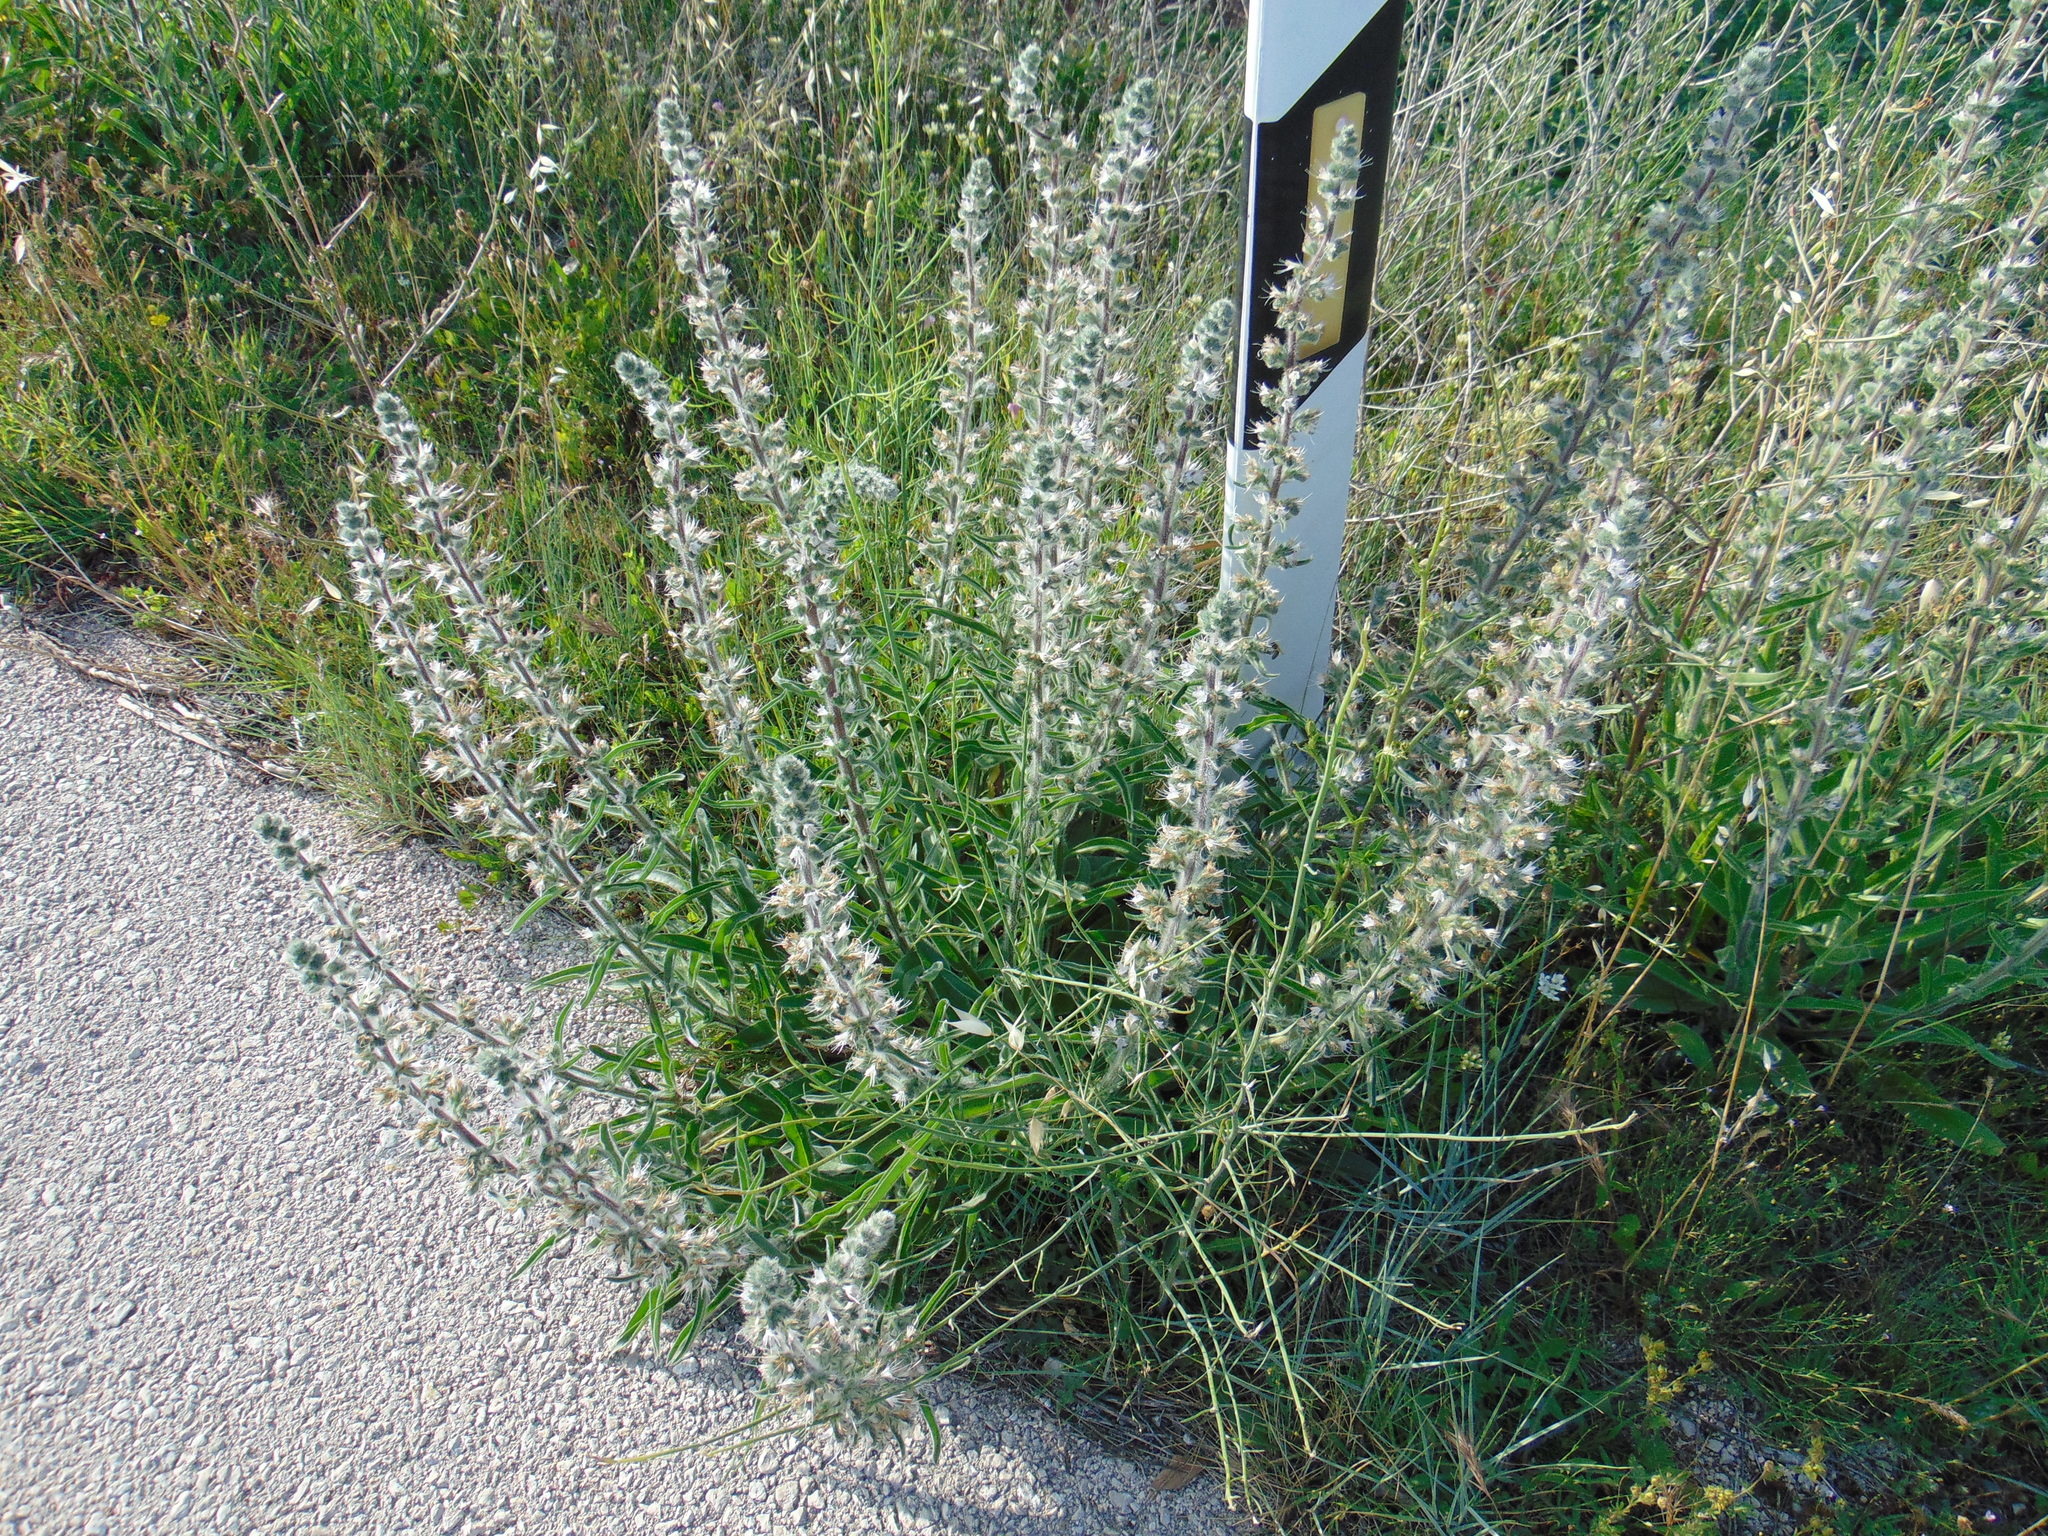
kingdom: Plantae
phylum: Tracheophyta
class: Magnoliopsida
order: Boraginales
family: Boraginaceae
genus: Echium
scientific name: Echium italicum
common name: Italian viper's bugloss
